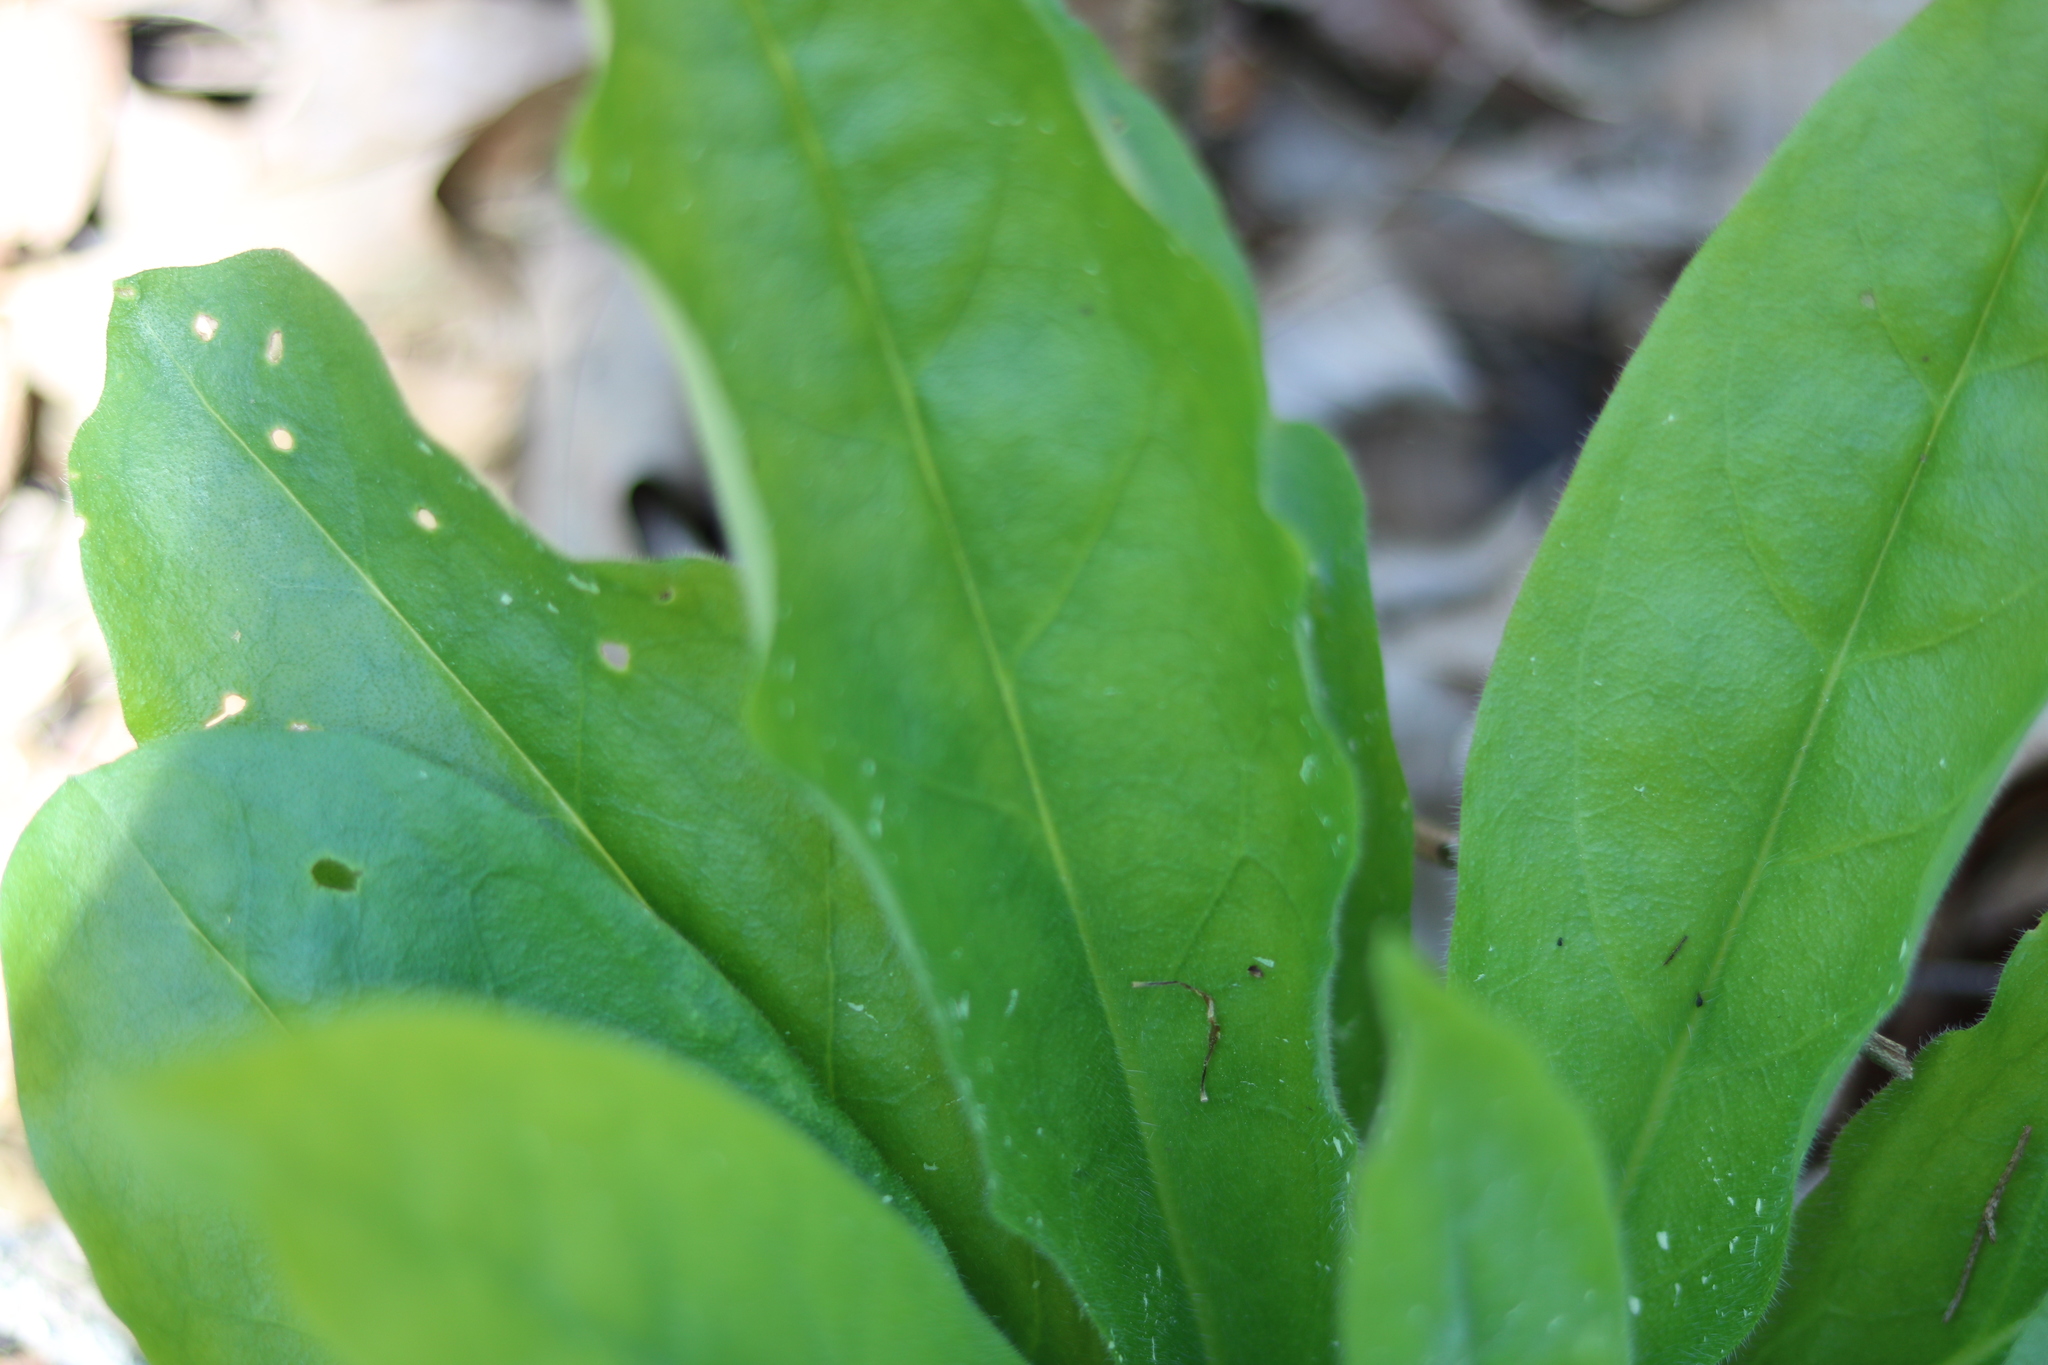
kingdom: Plantae
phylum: Tracheophyta
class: Magnoliopsida
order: Boraginales
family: Boraginaceae
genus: Andersonglossum
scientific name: Andersonglossum virginianum
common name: Wild comfrey
